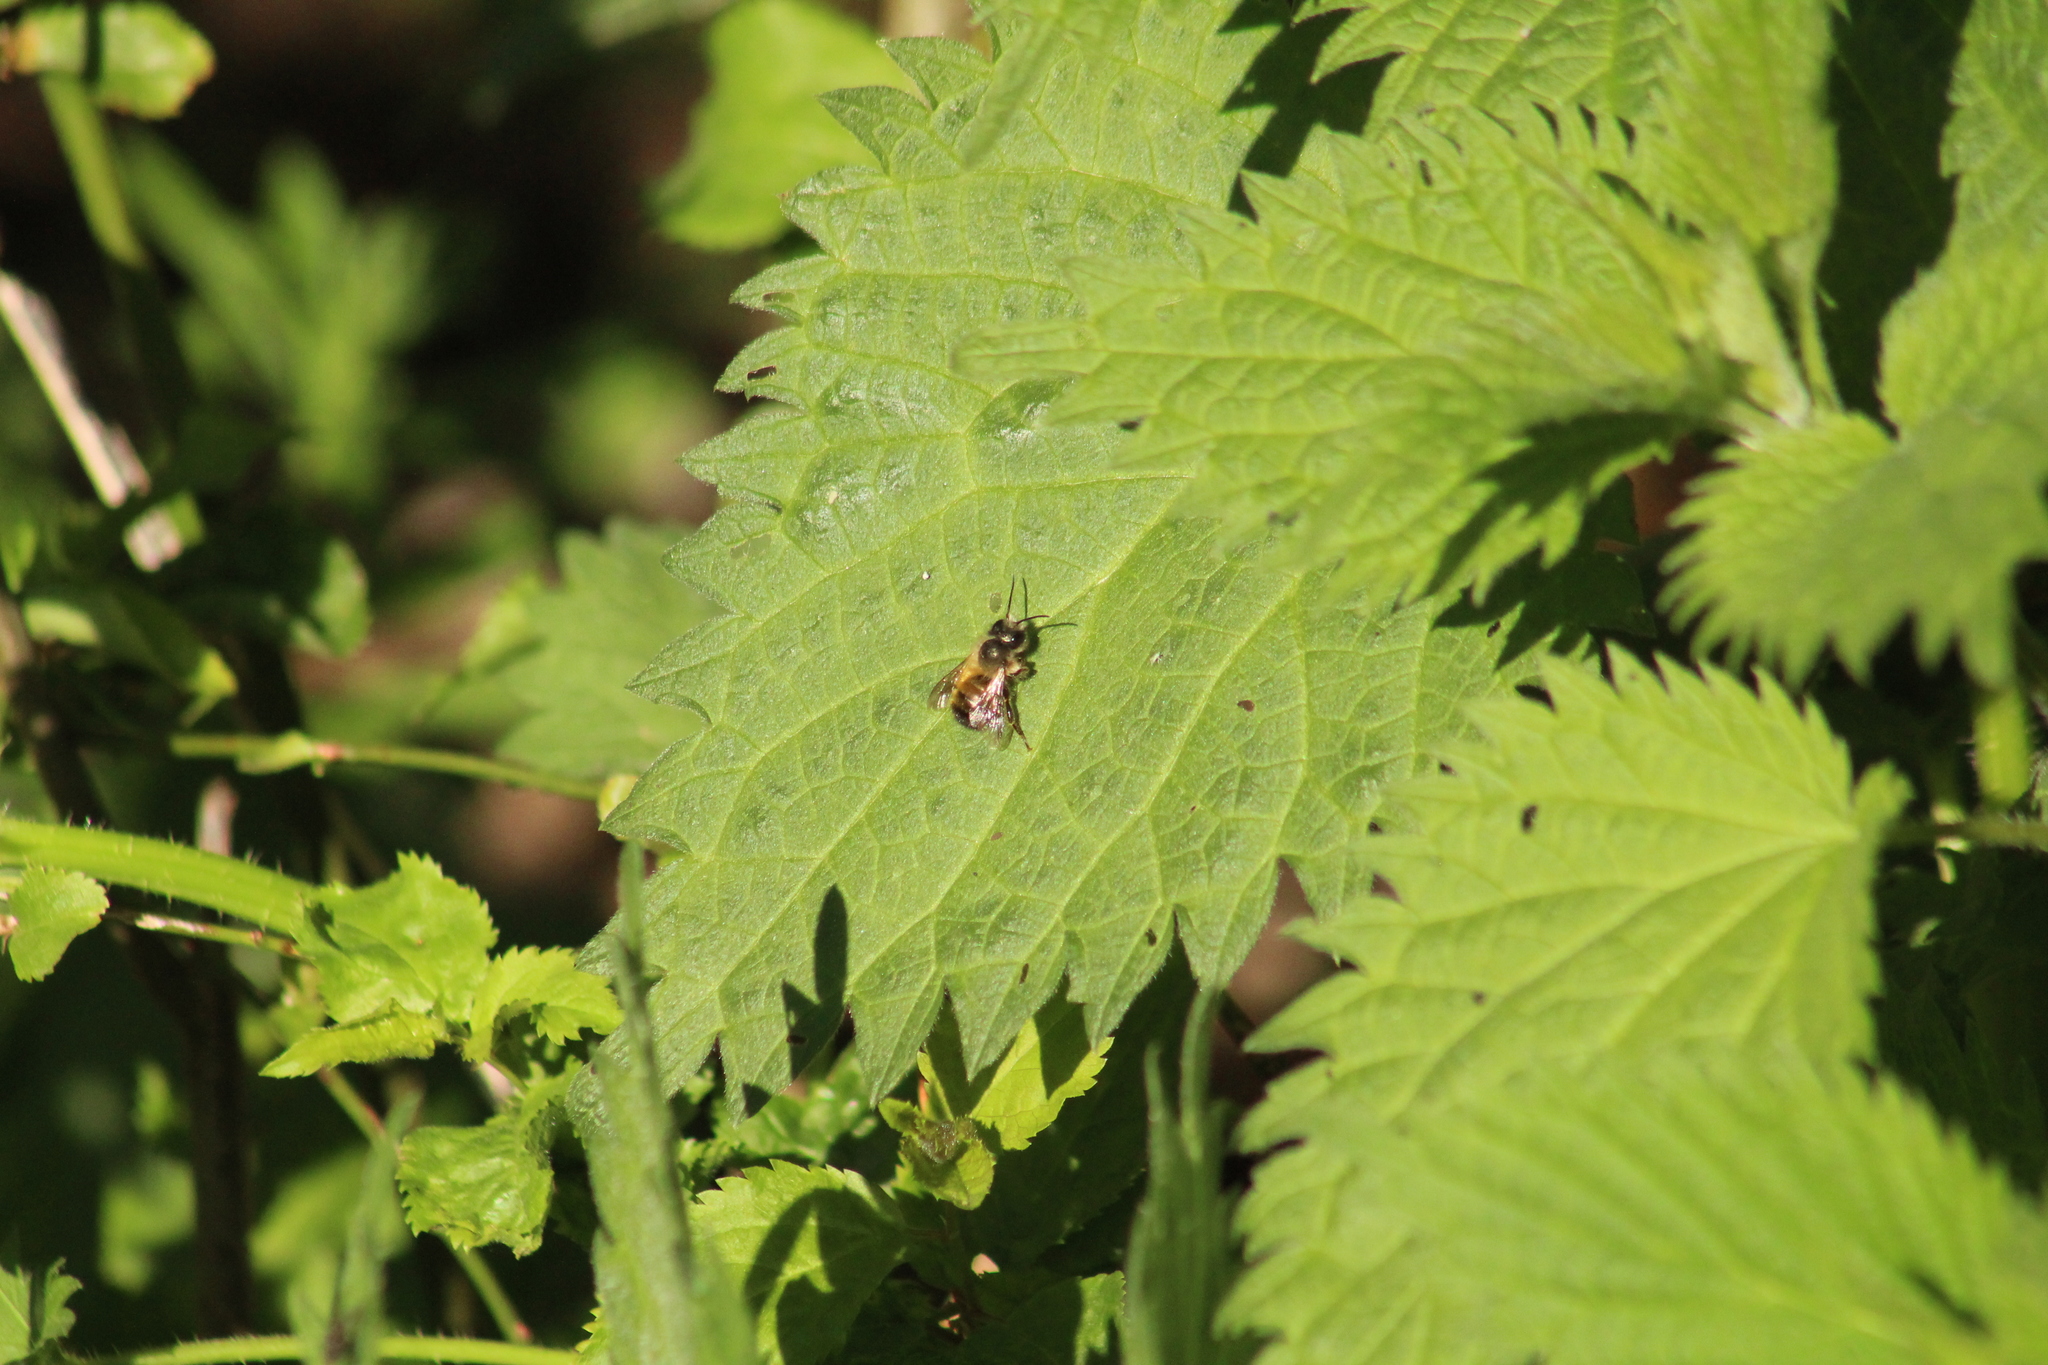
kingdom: Animalia
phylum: Arthropoda
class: Insecta
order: Hymenoptera
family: Megachilidae
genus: Osmia
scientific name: Osmia bicornis
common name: Red mason bee
